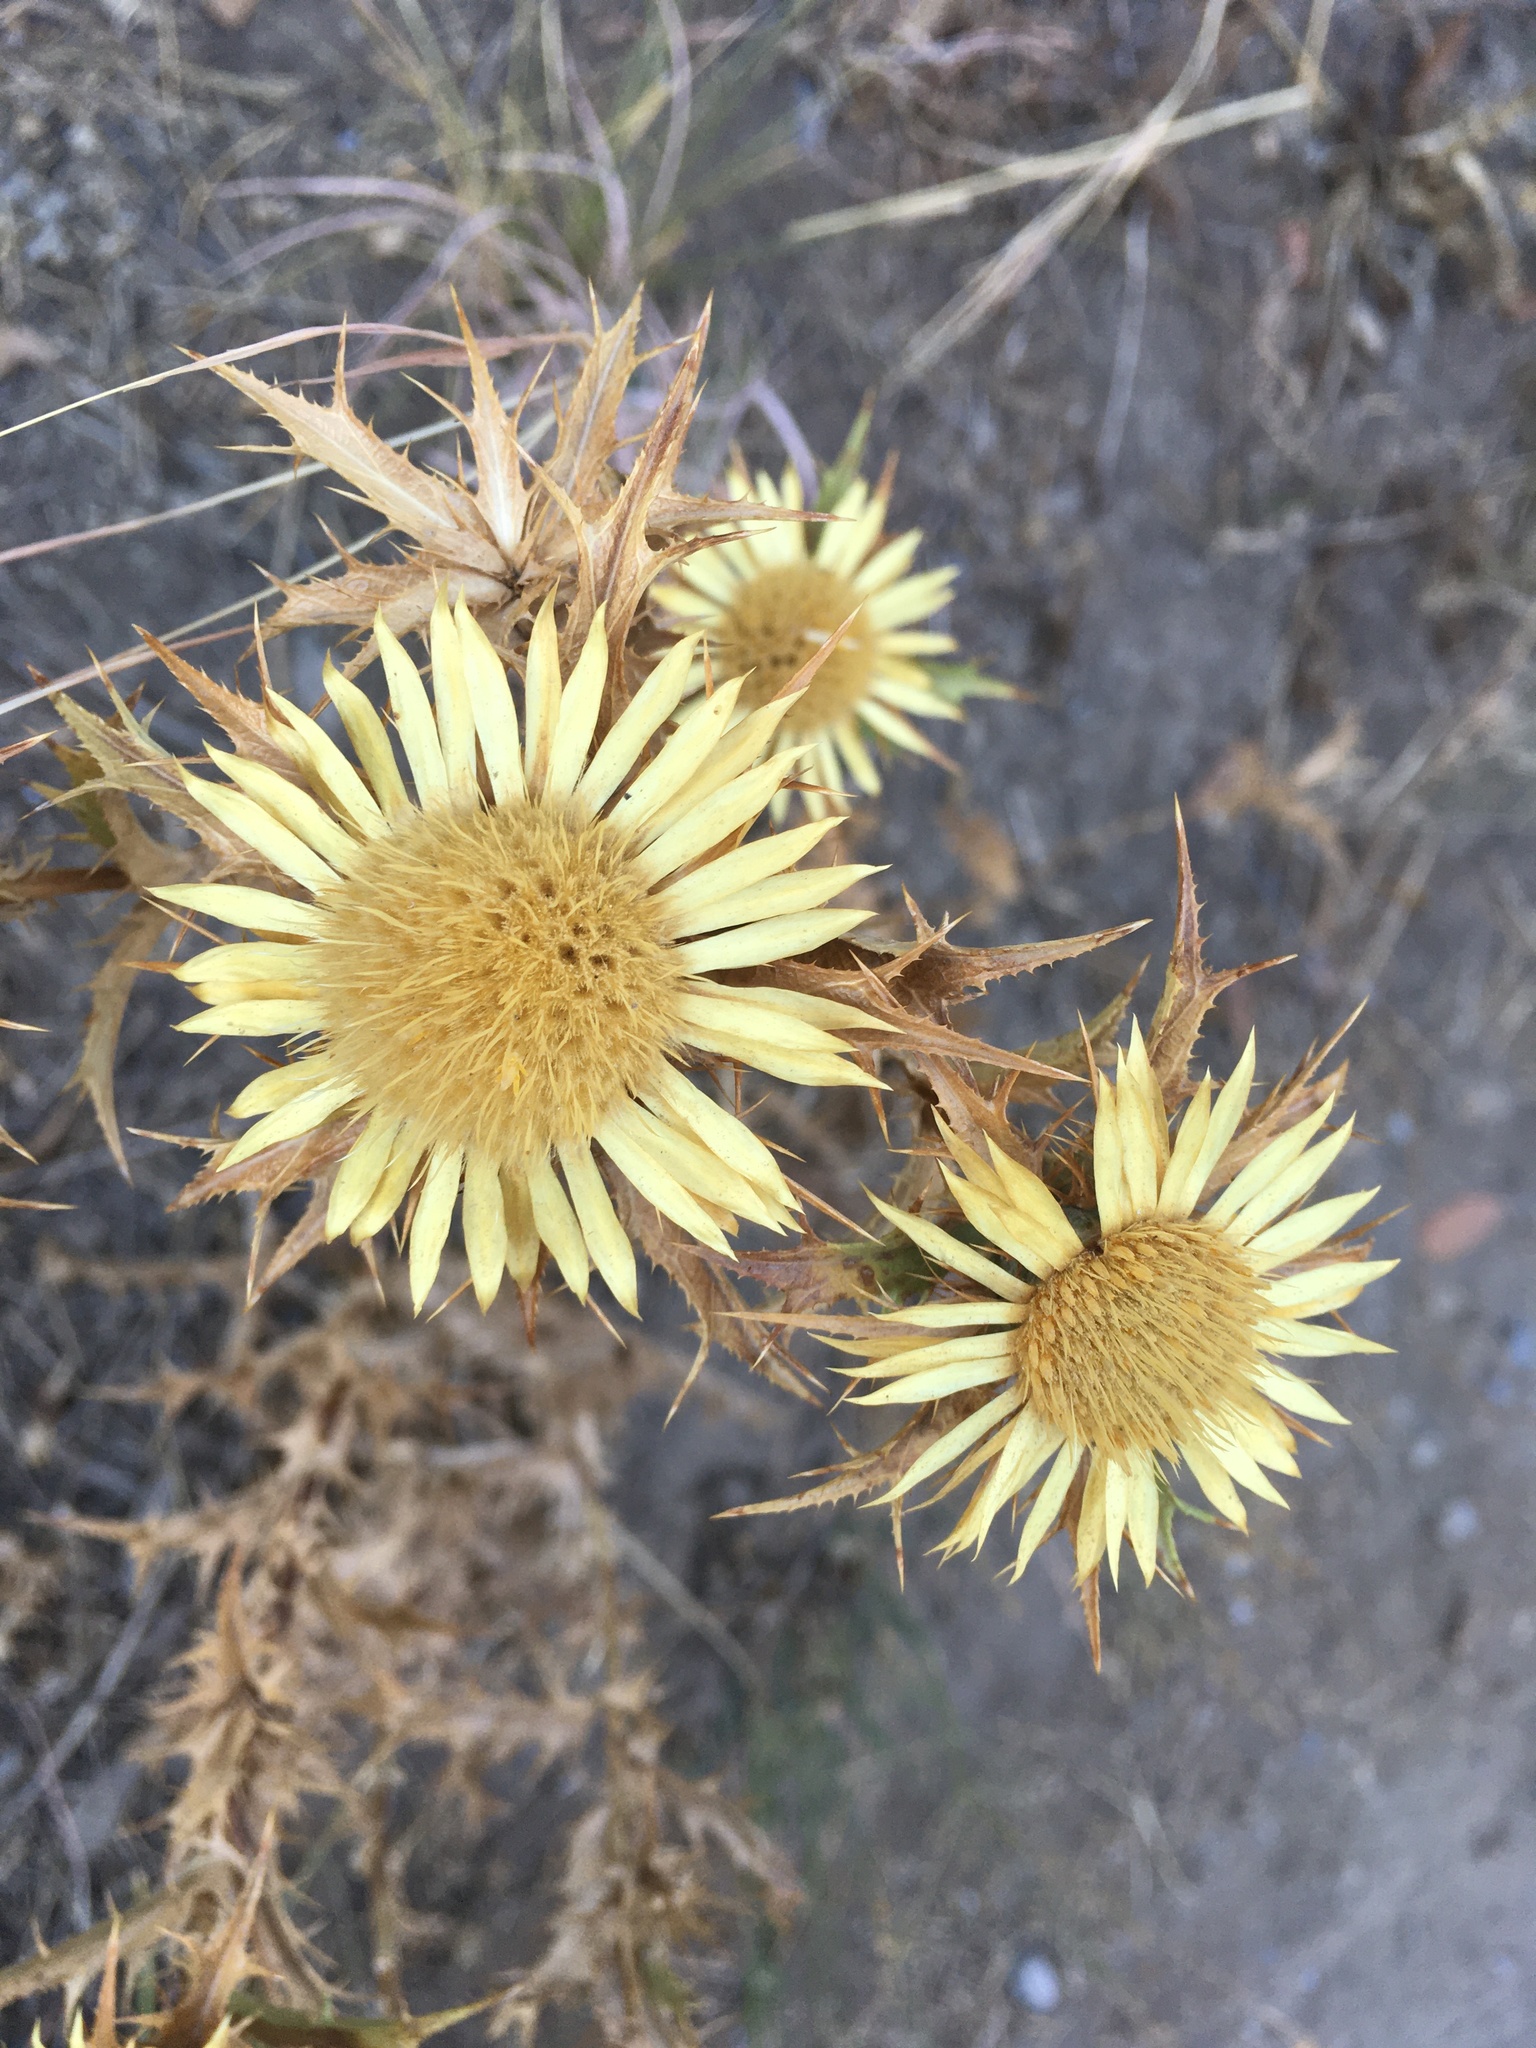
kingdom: Plantae
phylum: Tracheophyta
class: Magnoliopsida
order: Asterales
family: Asteraceae
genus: Carlina
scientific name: Carlina corymbosa
